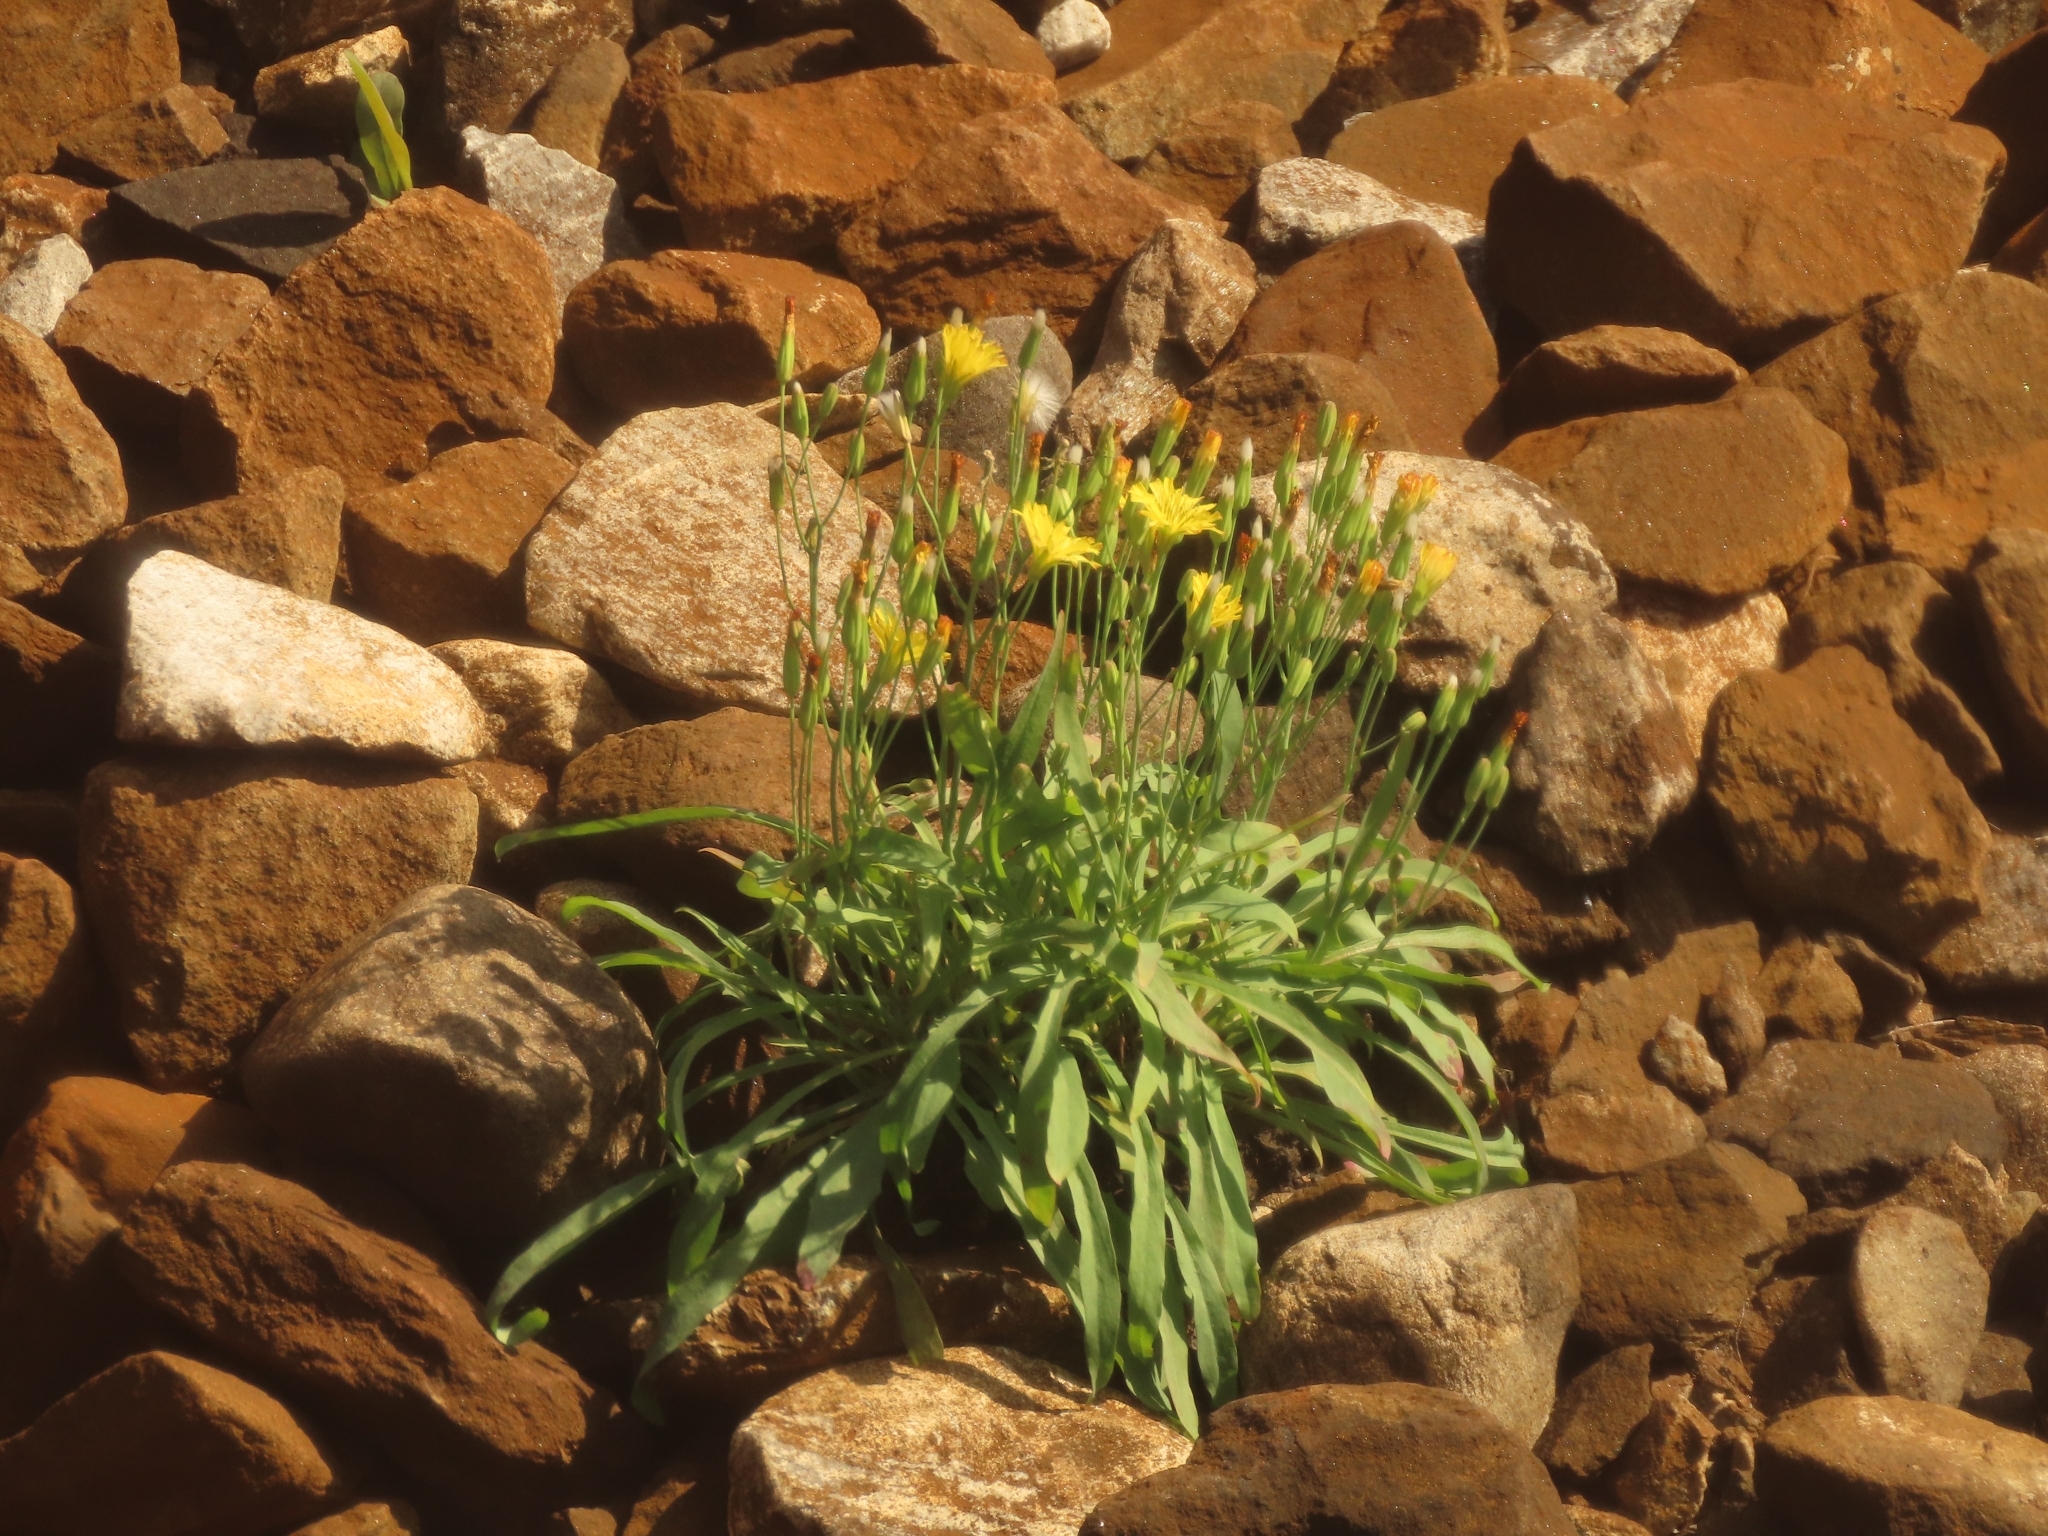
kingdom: Plantae
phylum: Tracheophyta
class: Magnoliopsida
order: Asterales
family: Asteraceae
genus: Ixeris
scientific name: Ixeris chinensis
